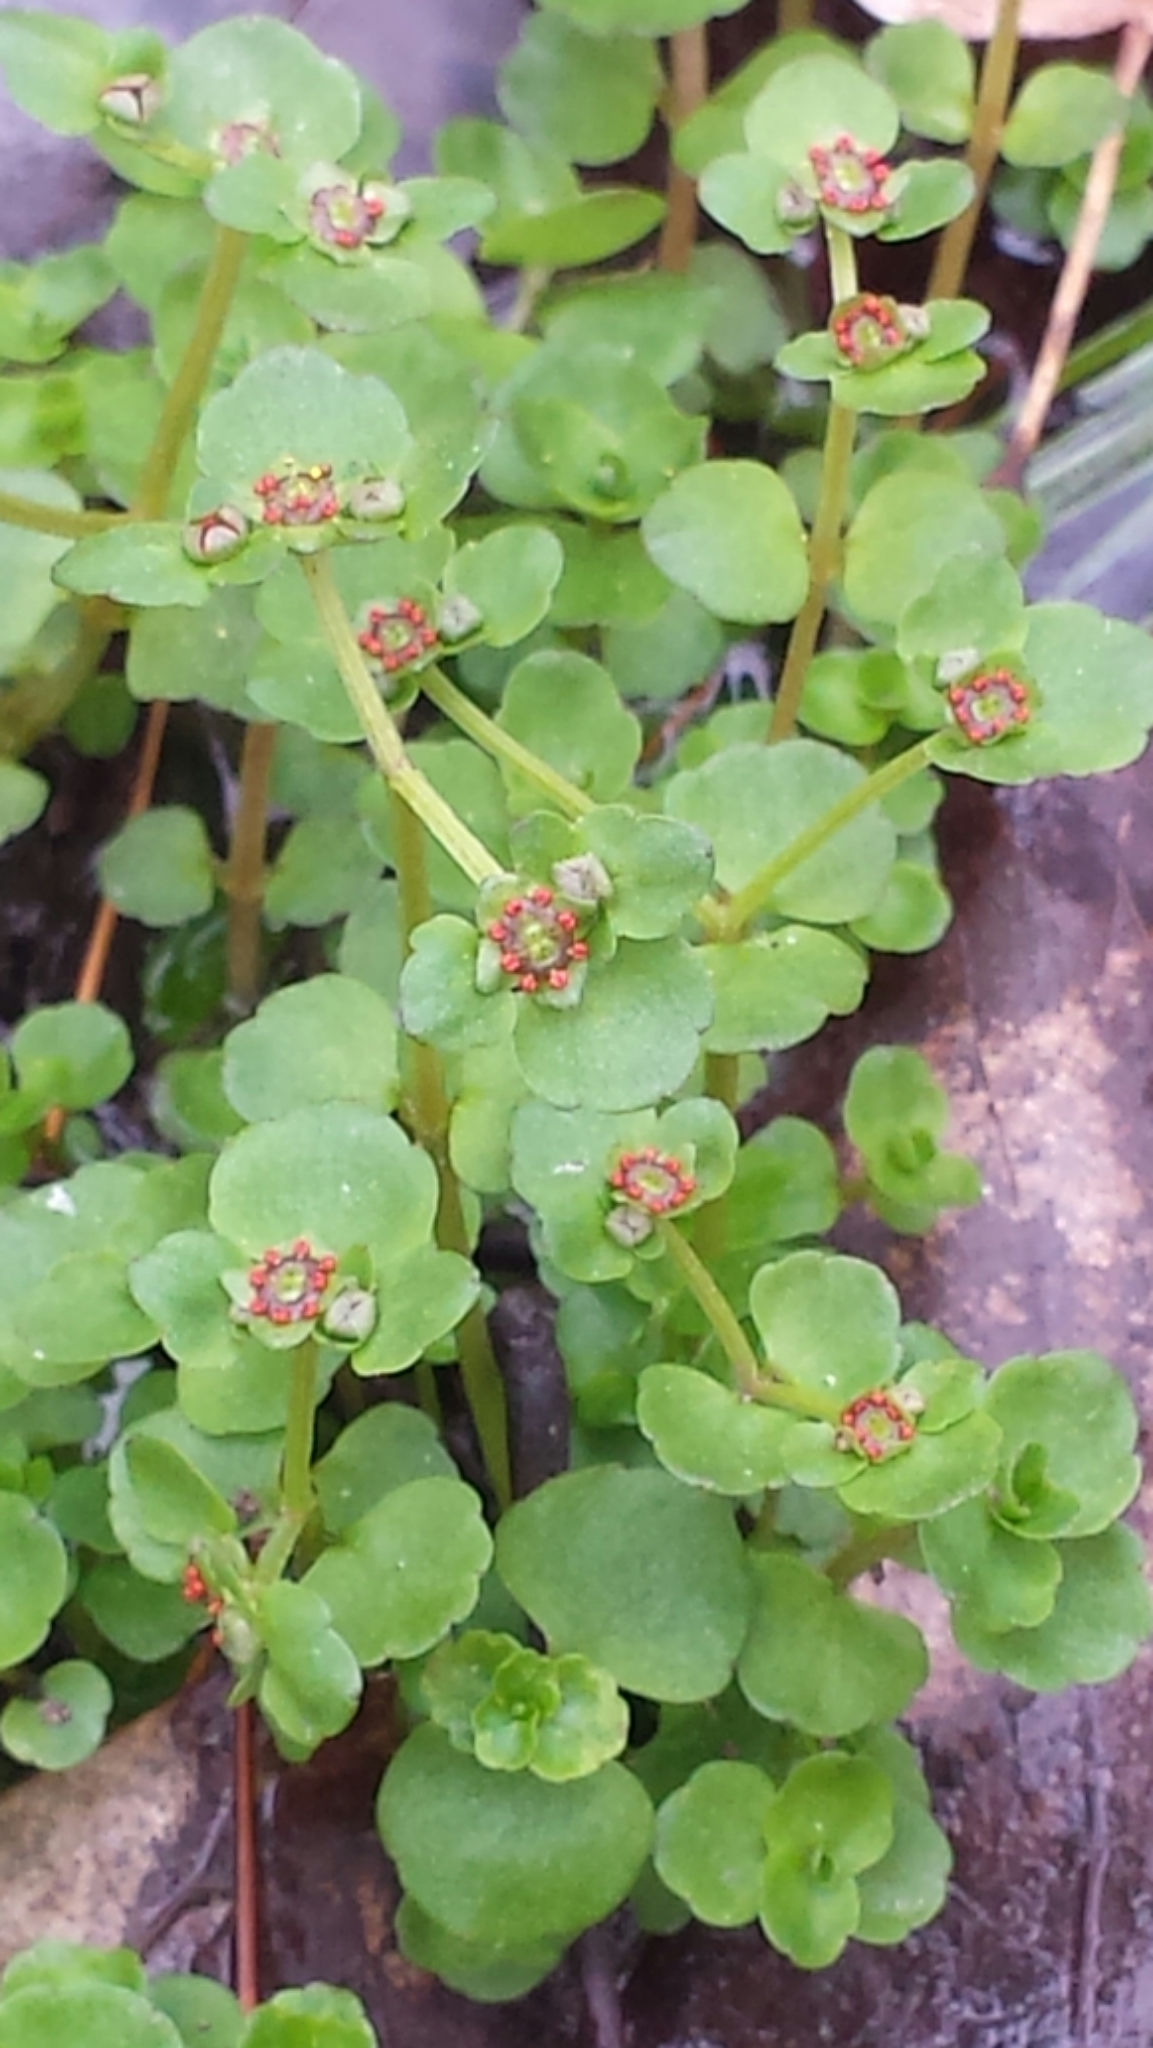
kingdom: Plantae
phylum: Tracheophyta
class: Magnoliopsida
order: Saxifragales
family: Saxifragaceae
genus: Chrysosplenium
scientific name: Chrysosplenium americanum
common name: American golden-saxifrage
